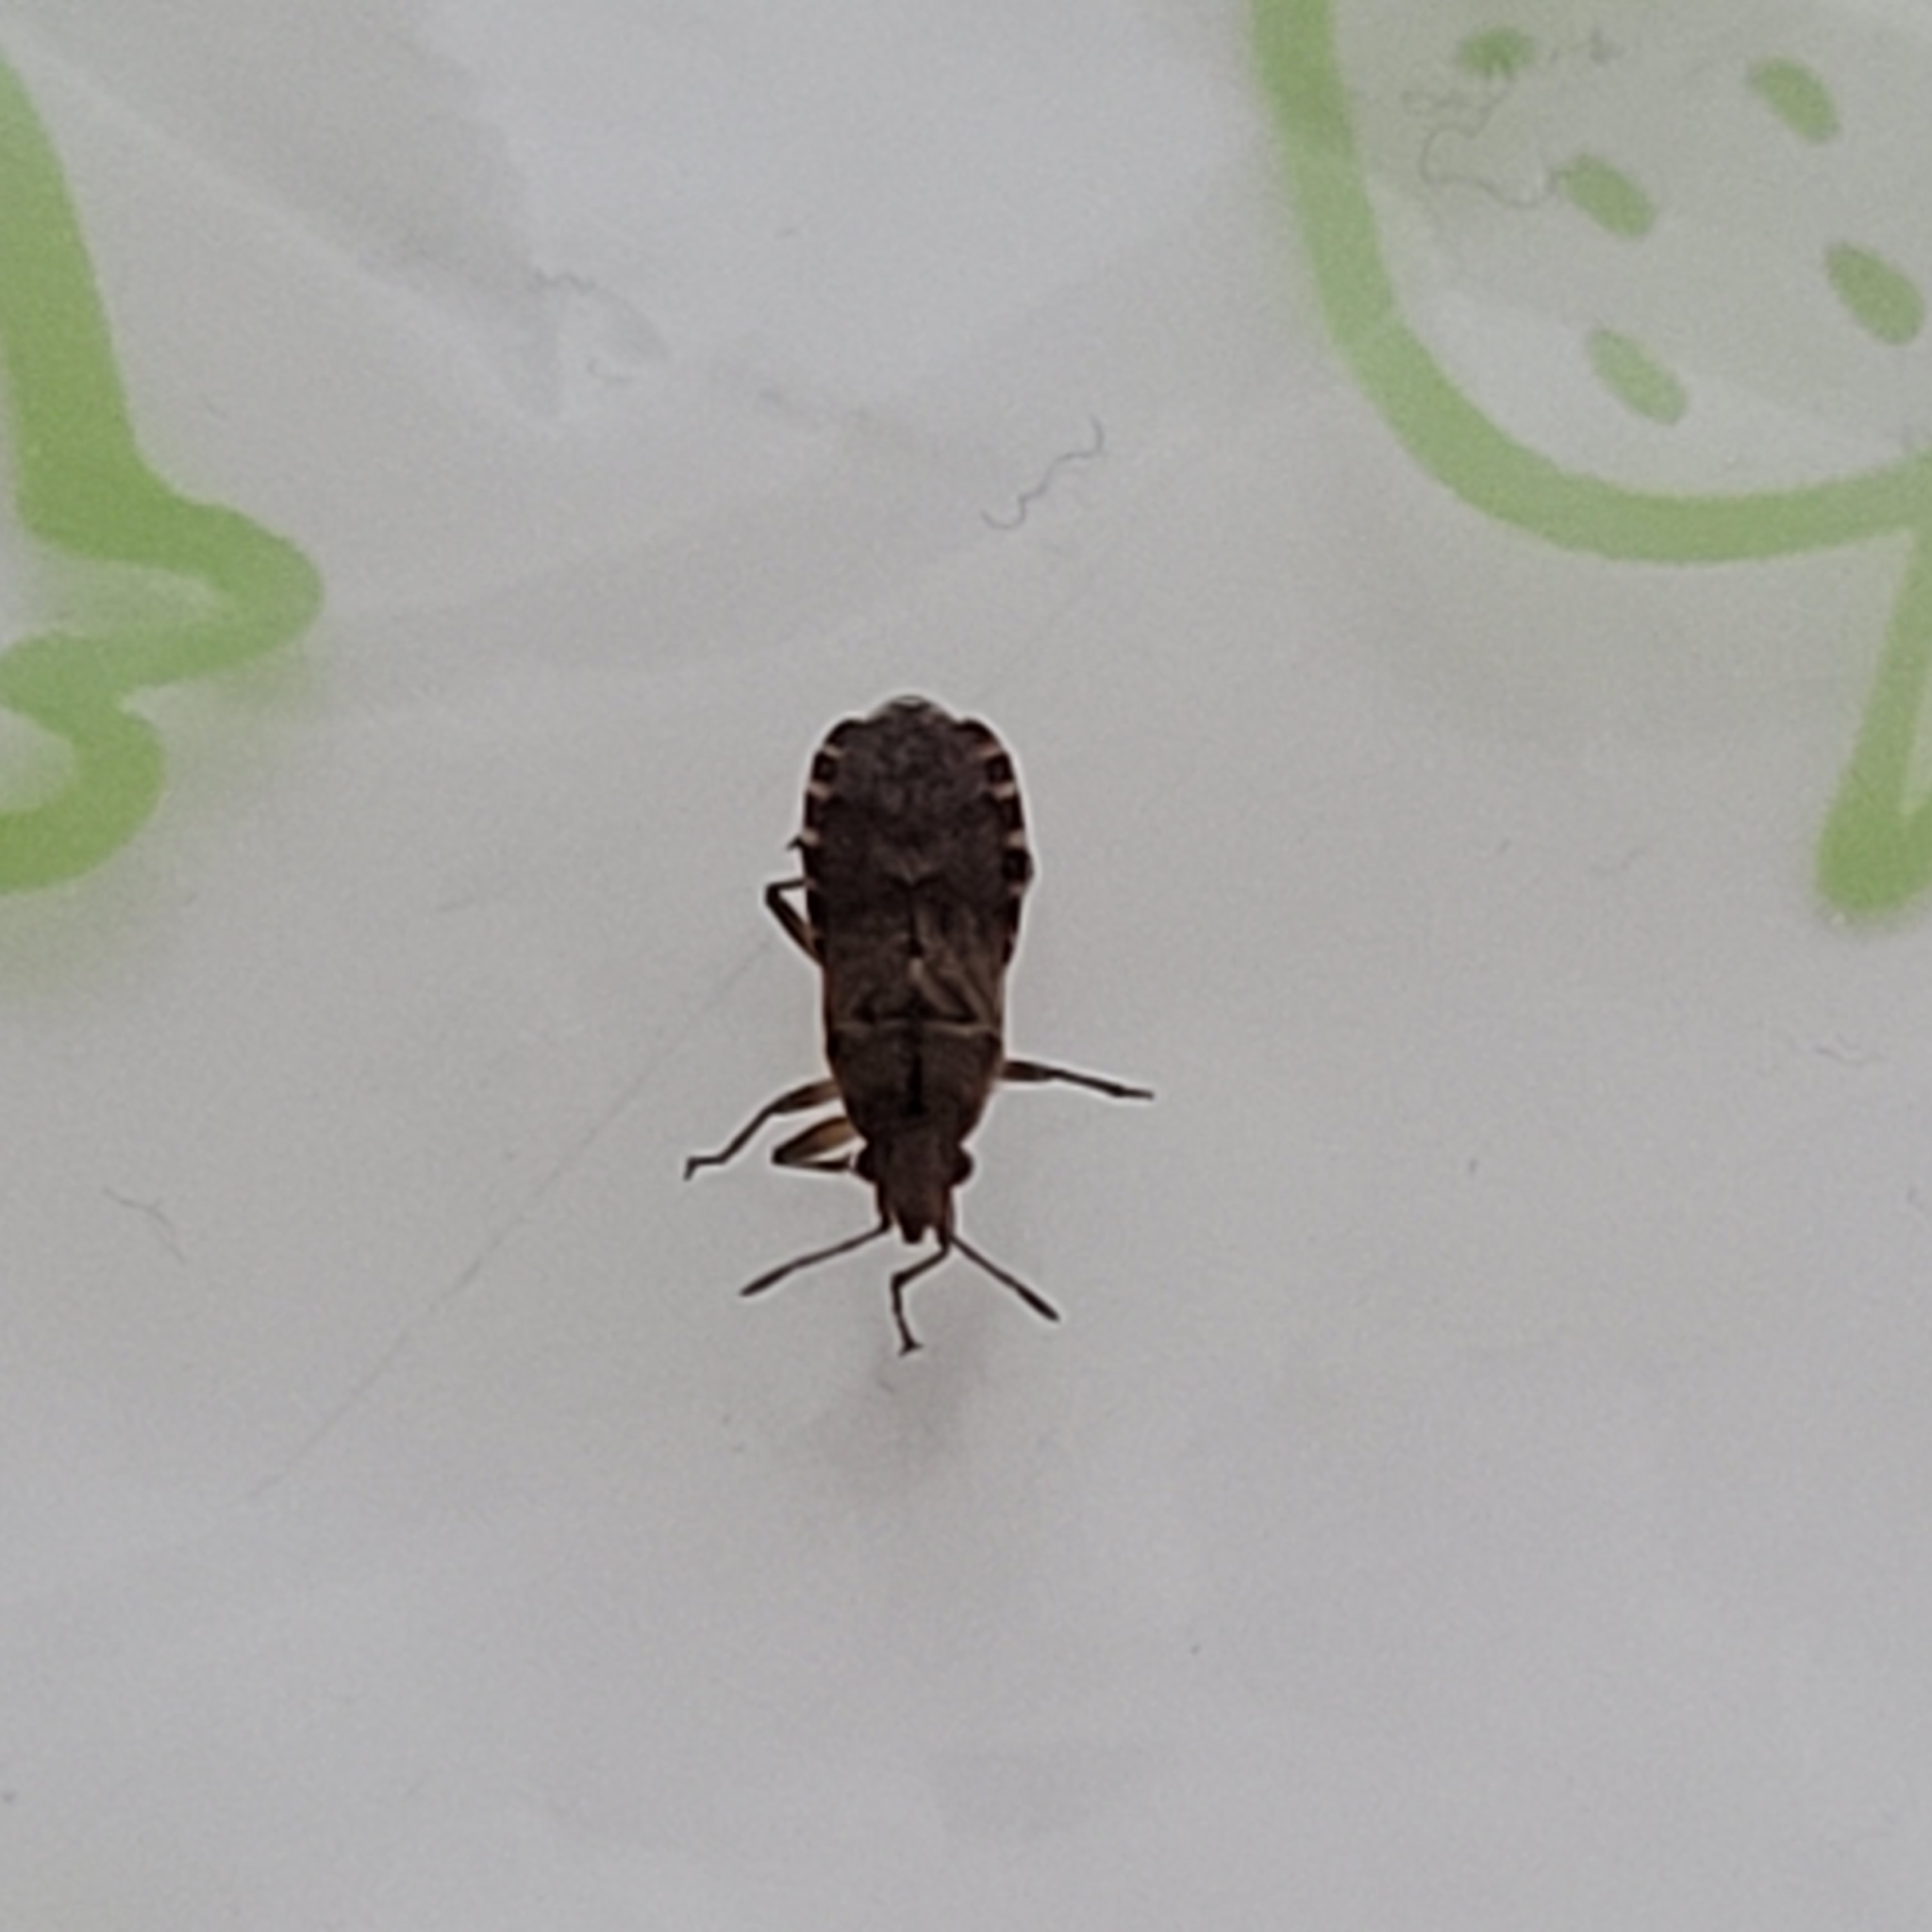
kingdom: Animalia
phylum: Arthropoda
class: Insecta
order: Hemiptera
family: Lygaeidae
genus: Orsillus
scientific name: Orsillus depressus
